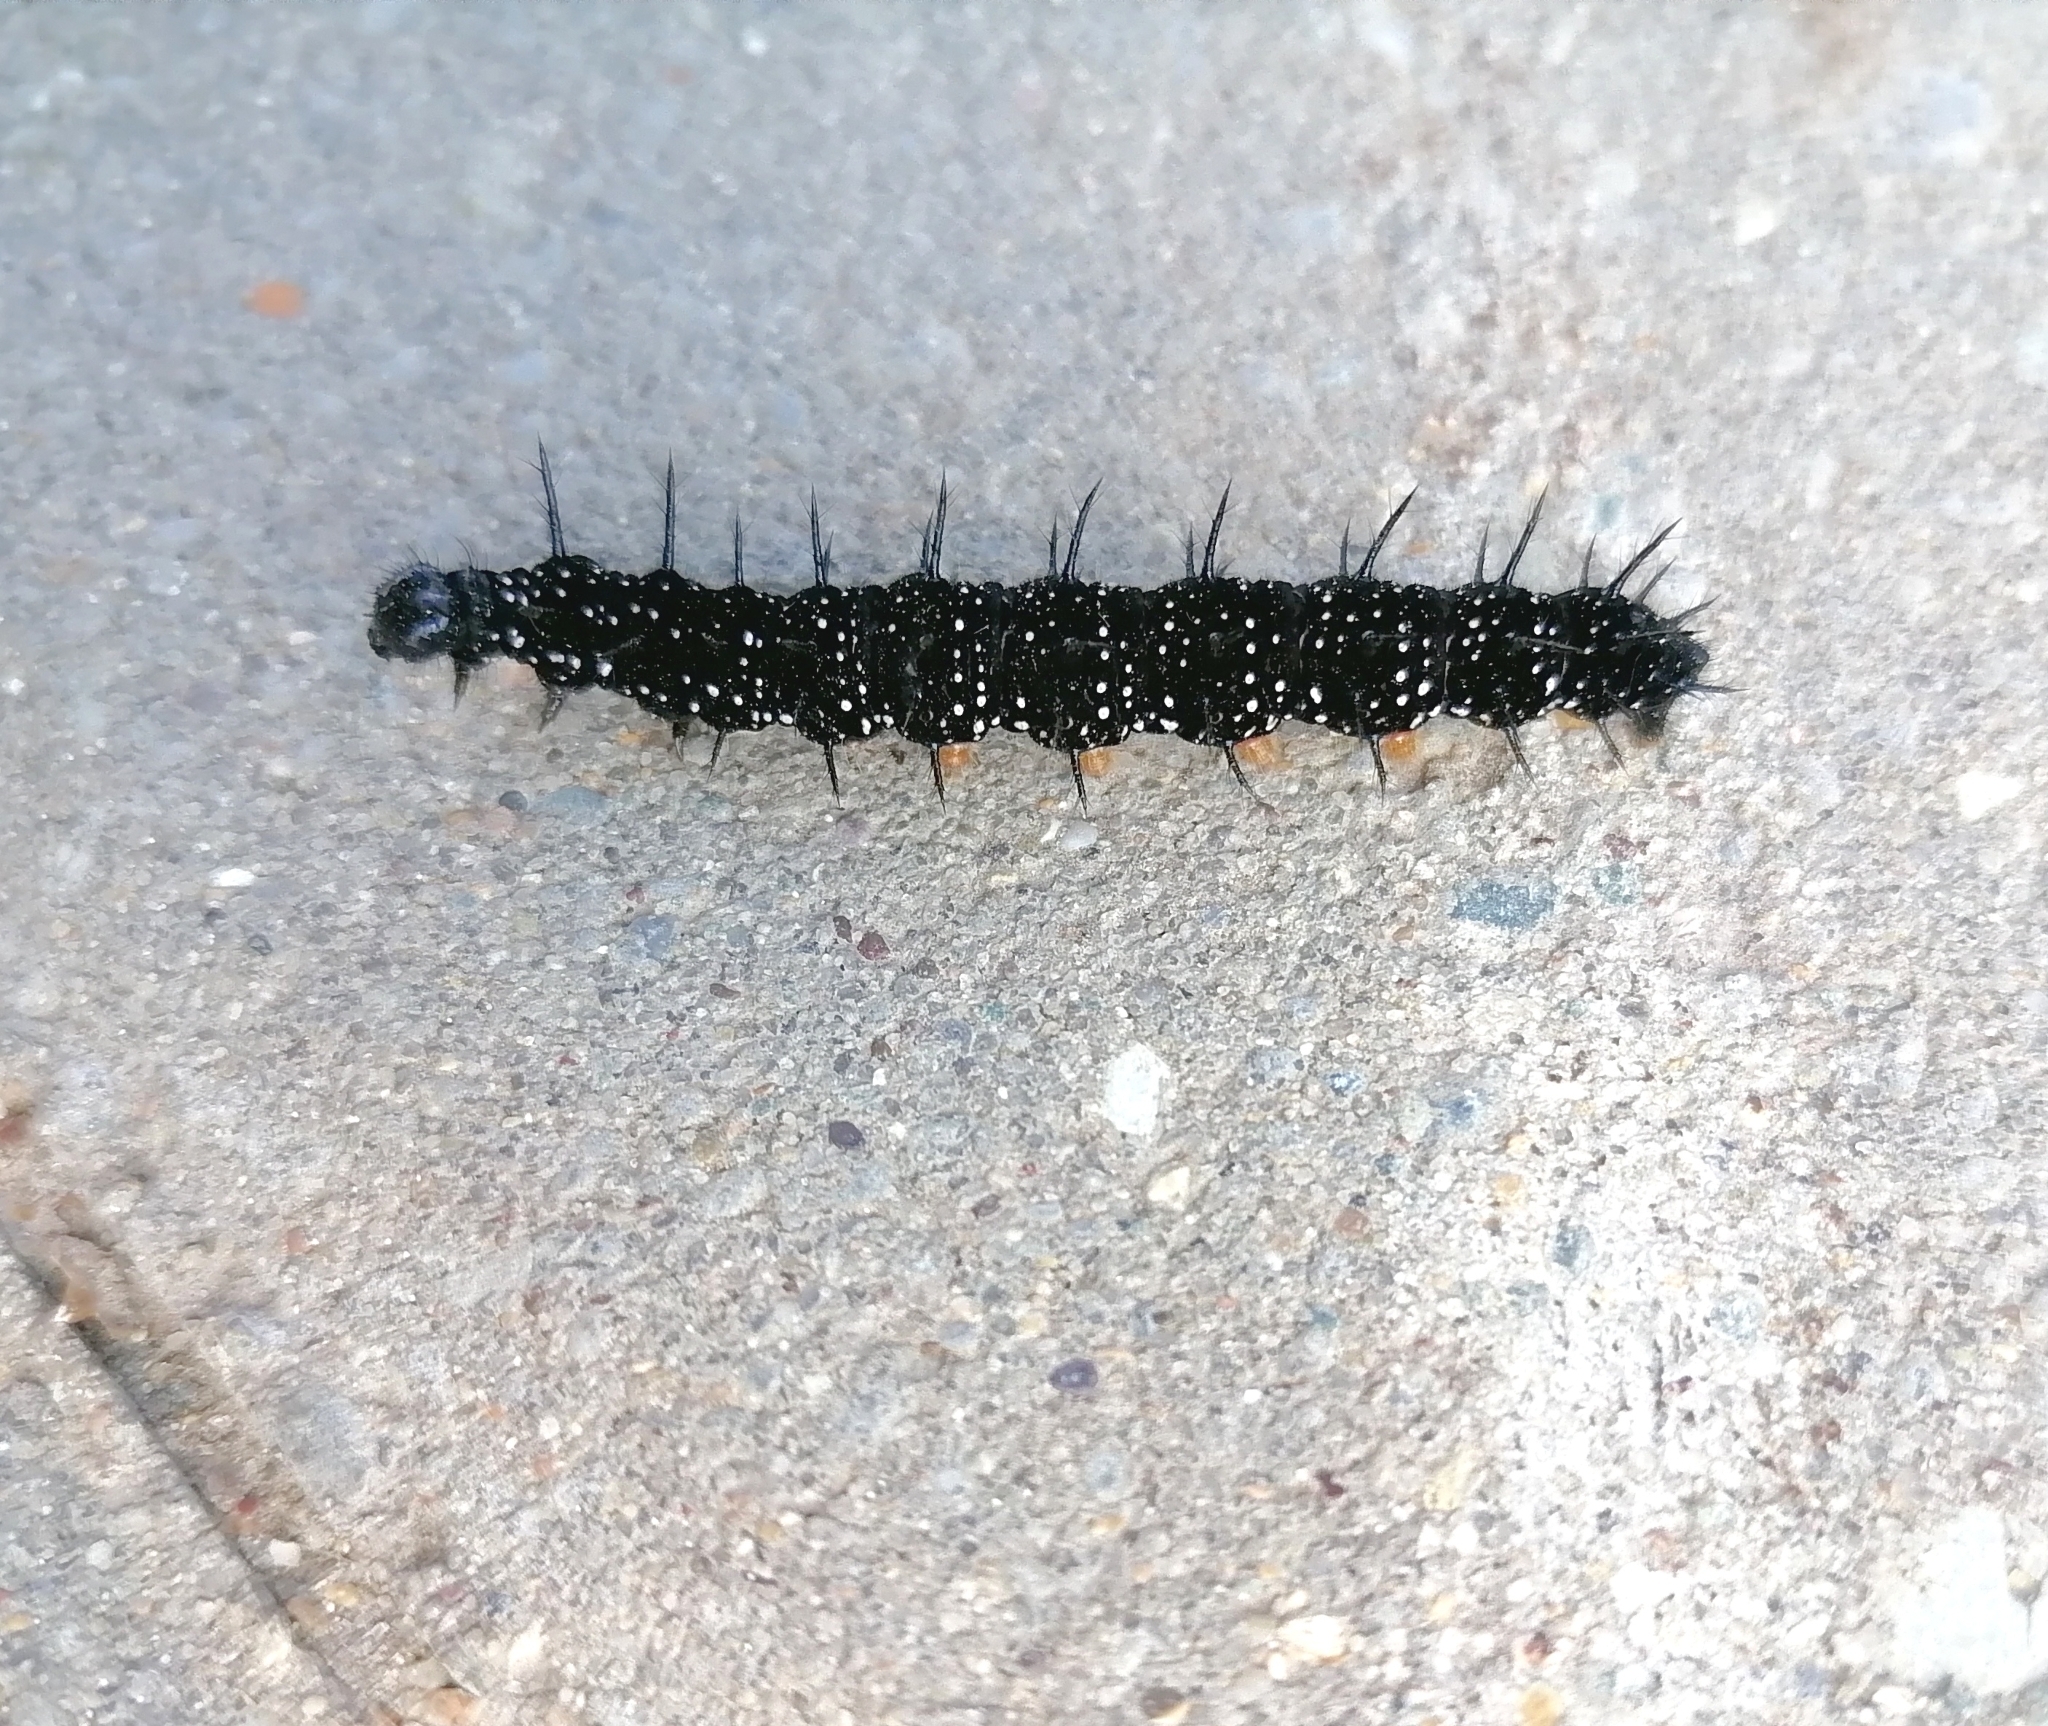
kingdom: Animalia
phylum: Arthropoda
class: Insecta
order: Lepidoptera
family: Nymphalidae
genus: Aglais
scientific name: Aglais io
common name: Peacock
